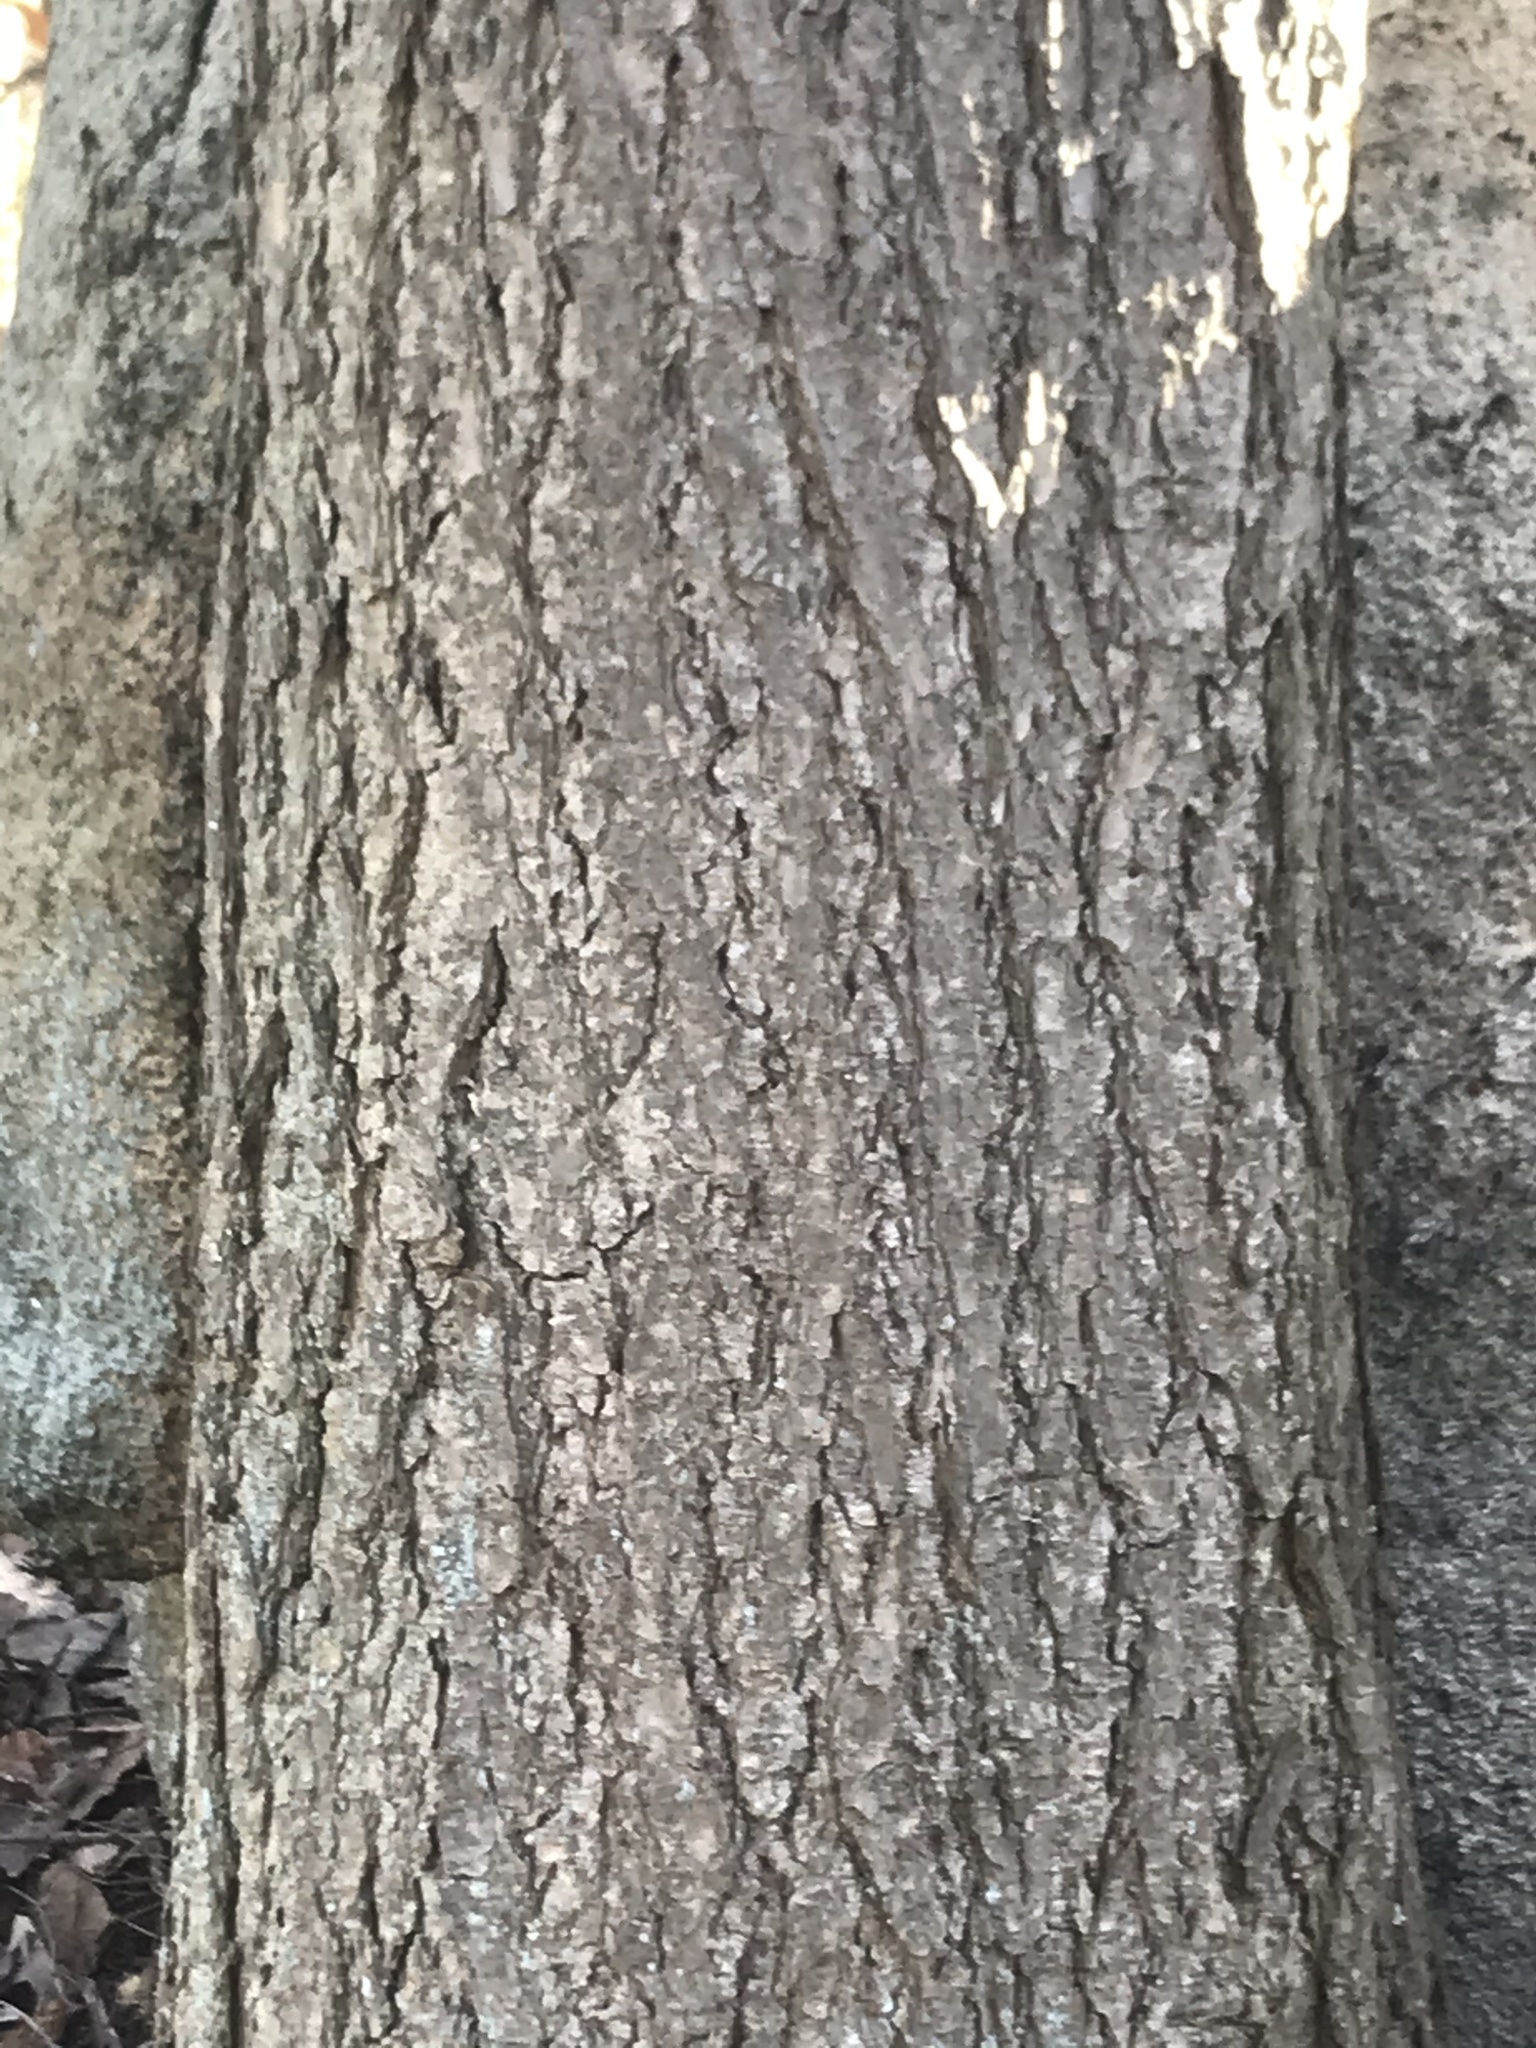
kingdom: Plantae
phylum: Tracheophyta
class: Pinopsida
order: Pinales
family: Pinaceae
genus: Tsuga
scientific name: Tsuga canadensis
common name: Eastern hemlock
